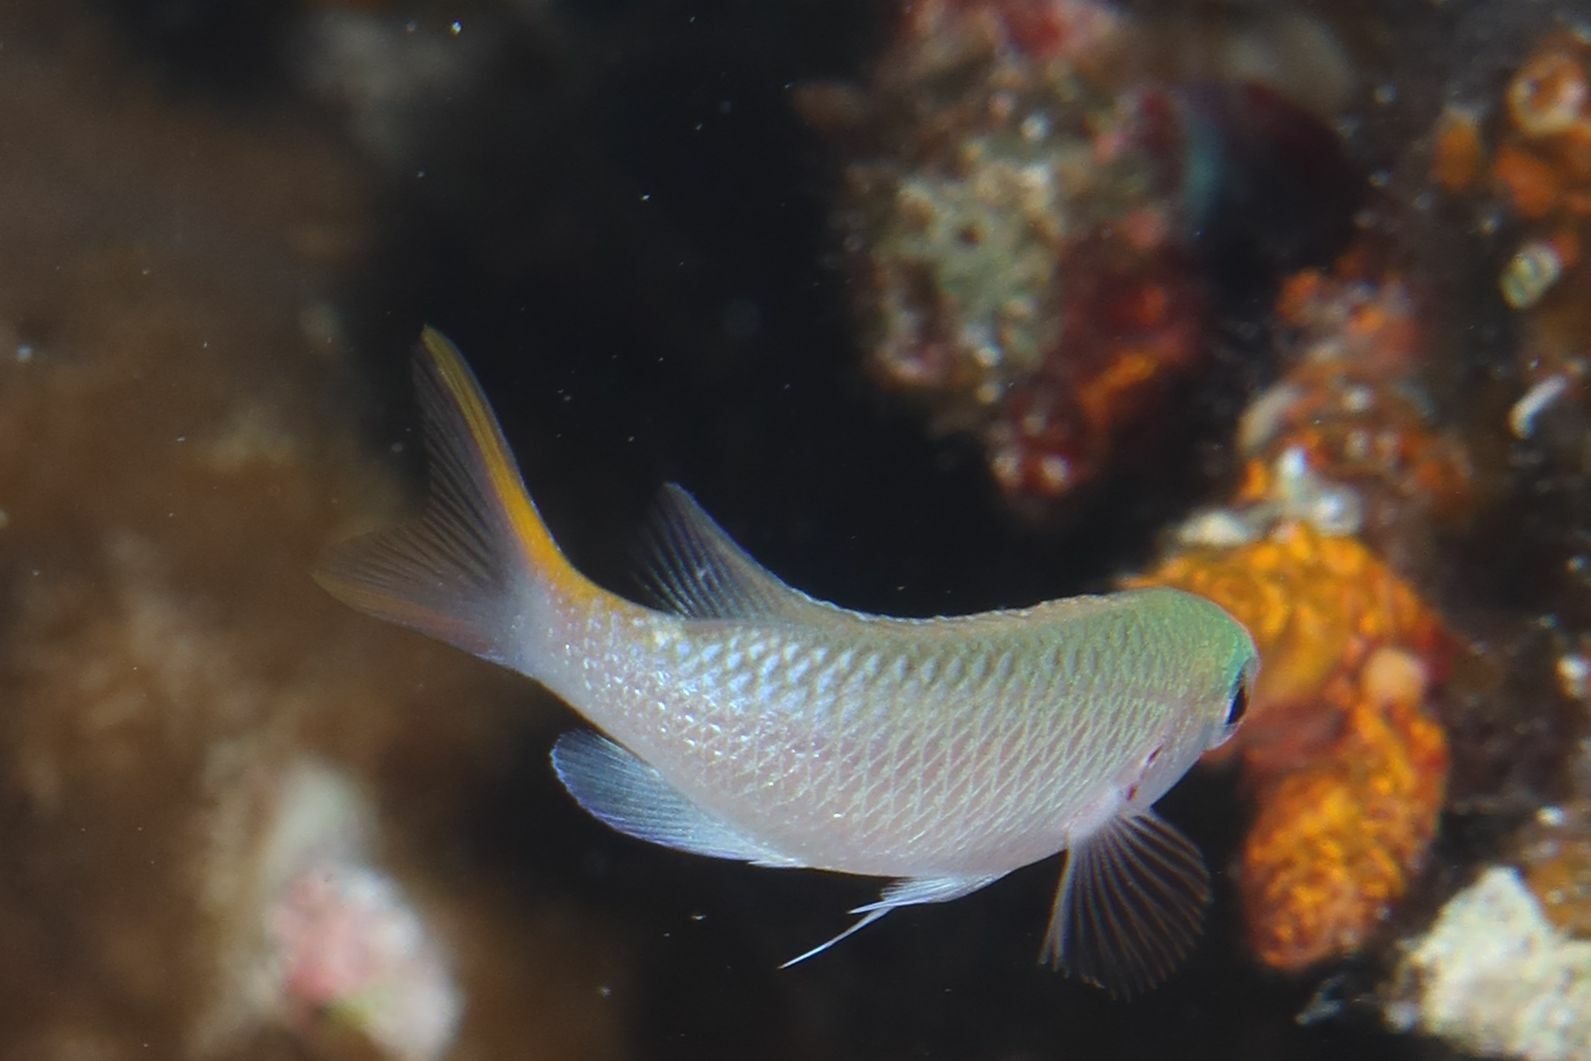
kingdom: Animalia
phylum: Chordata
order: Perciformes
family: Pomacentridae
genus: Neopomacentrus
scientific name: Neopomacentrus miryae
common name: Miry's demoiselle
